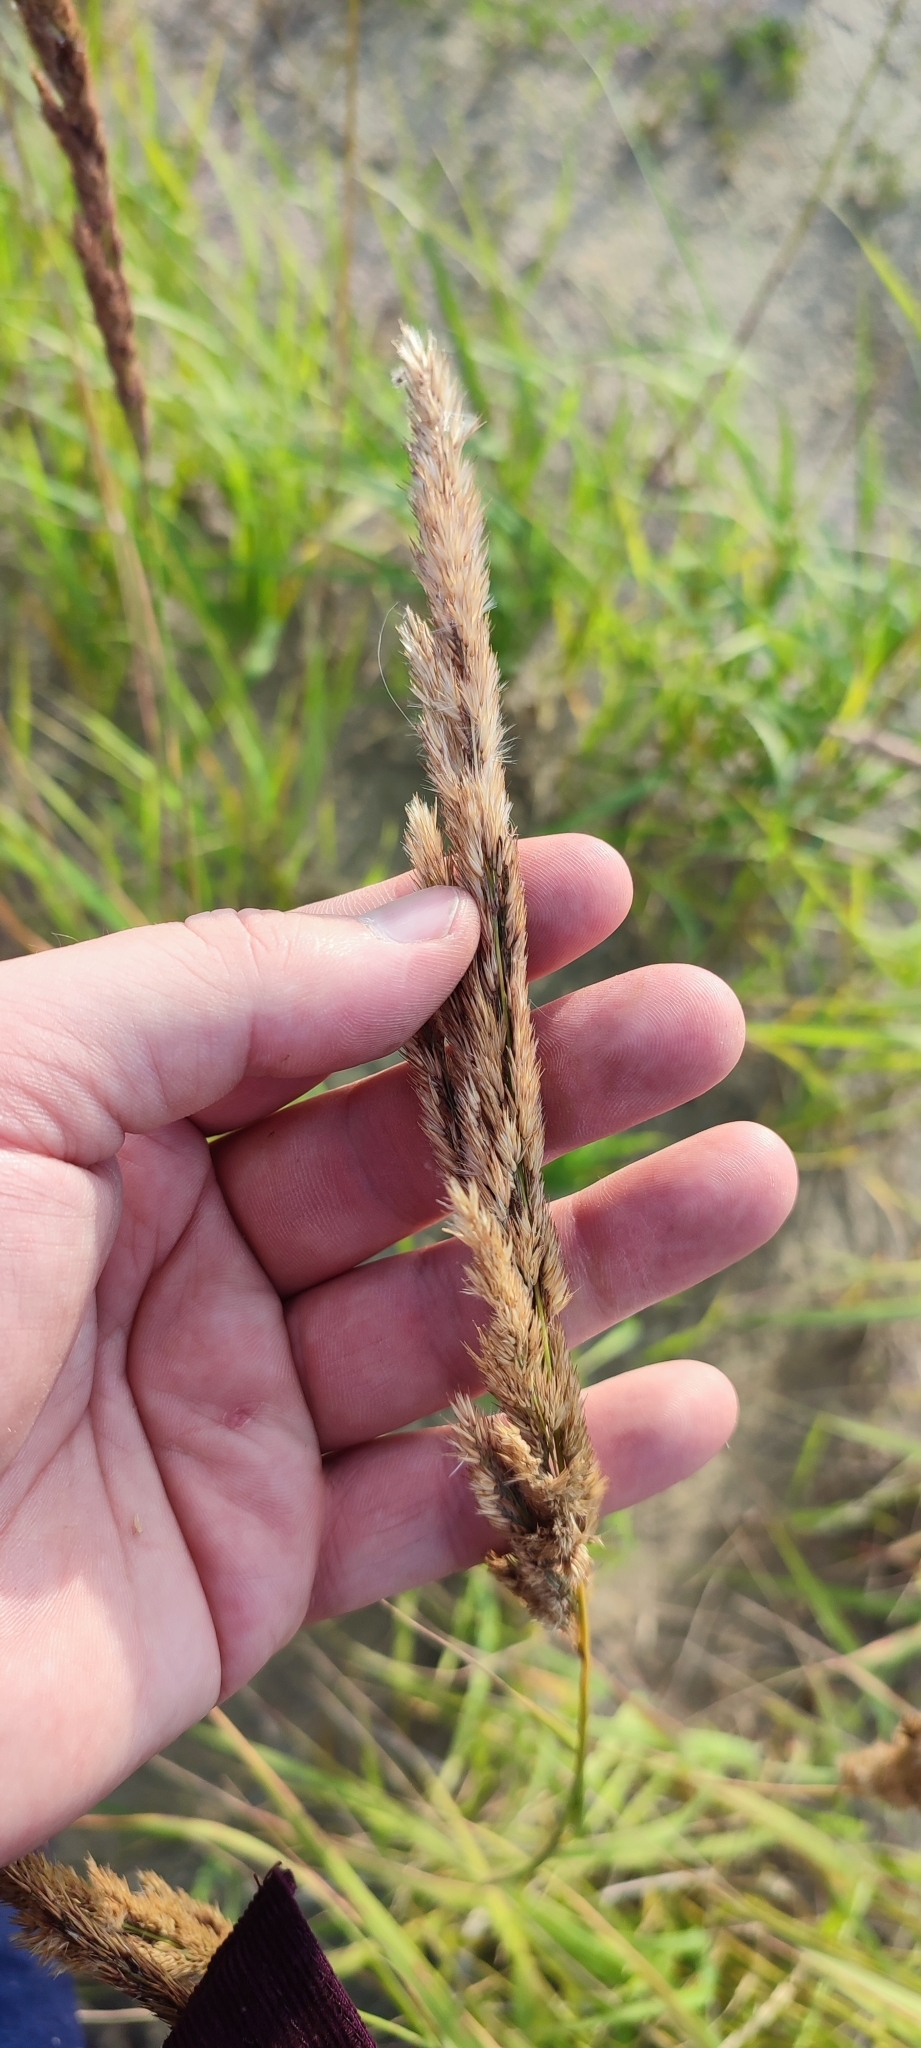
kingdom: Plantae
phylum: Tracheophyta
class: Liliopsida
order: Poales
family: Poaceae
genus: Calamagrostis
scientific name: Calamagrostis epigejos
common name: Wood small-reed
